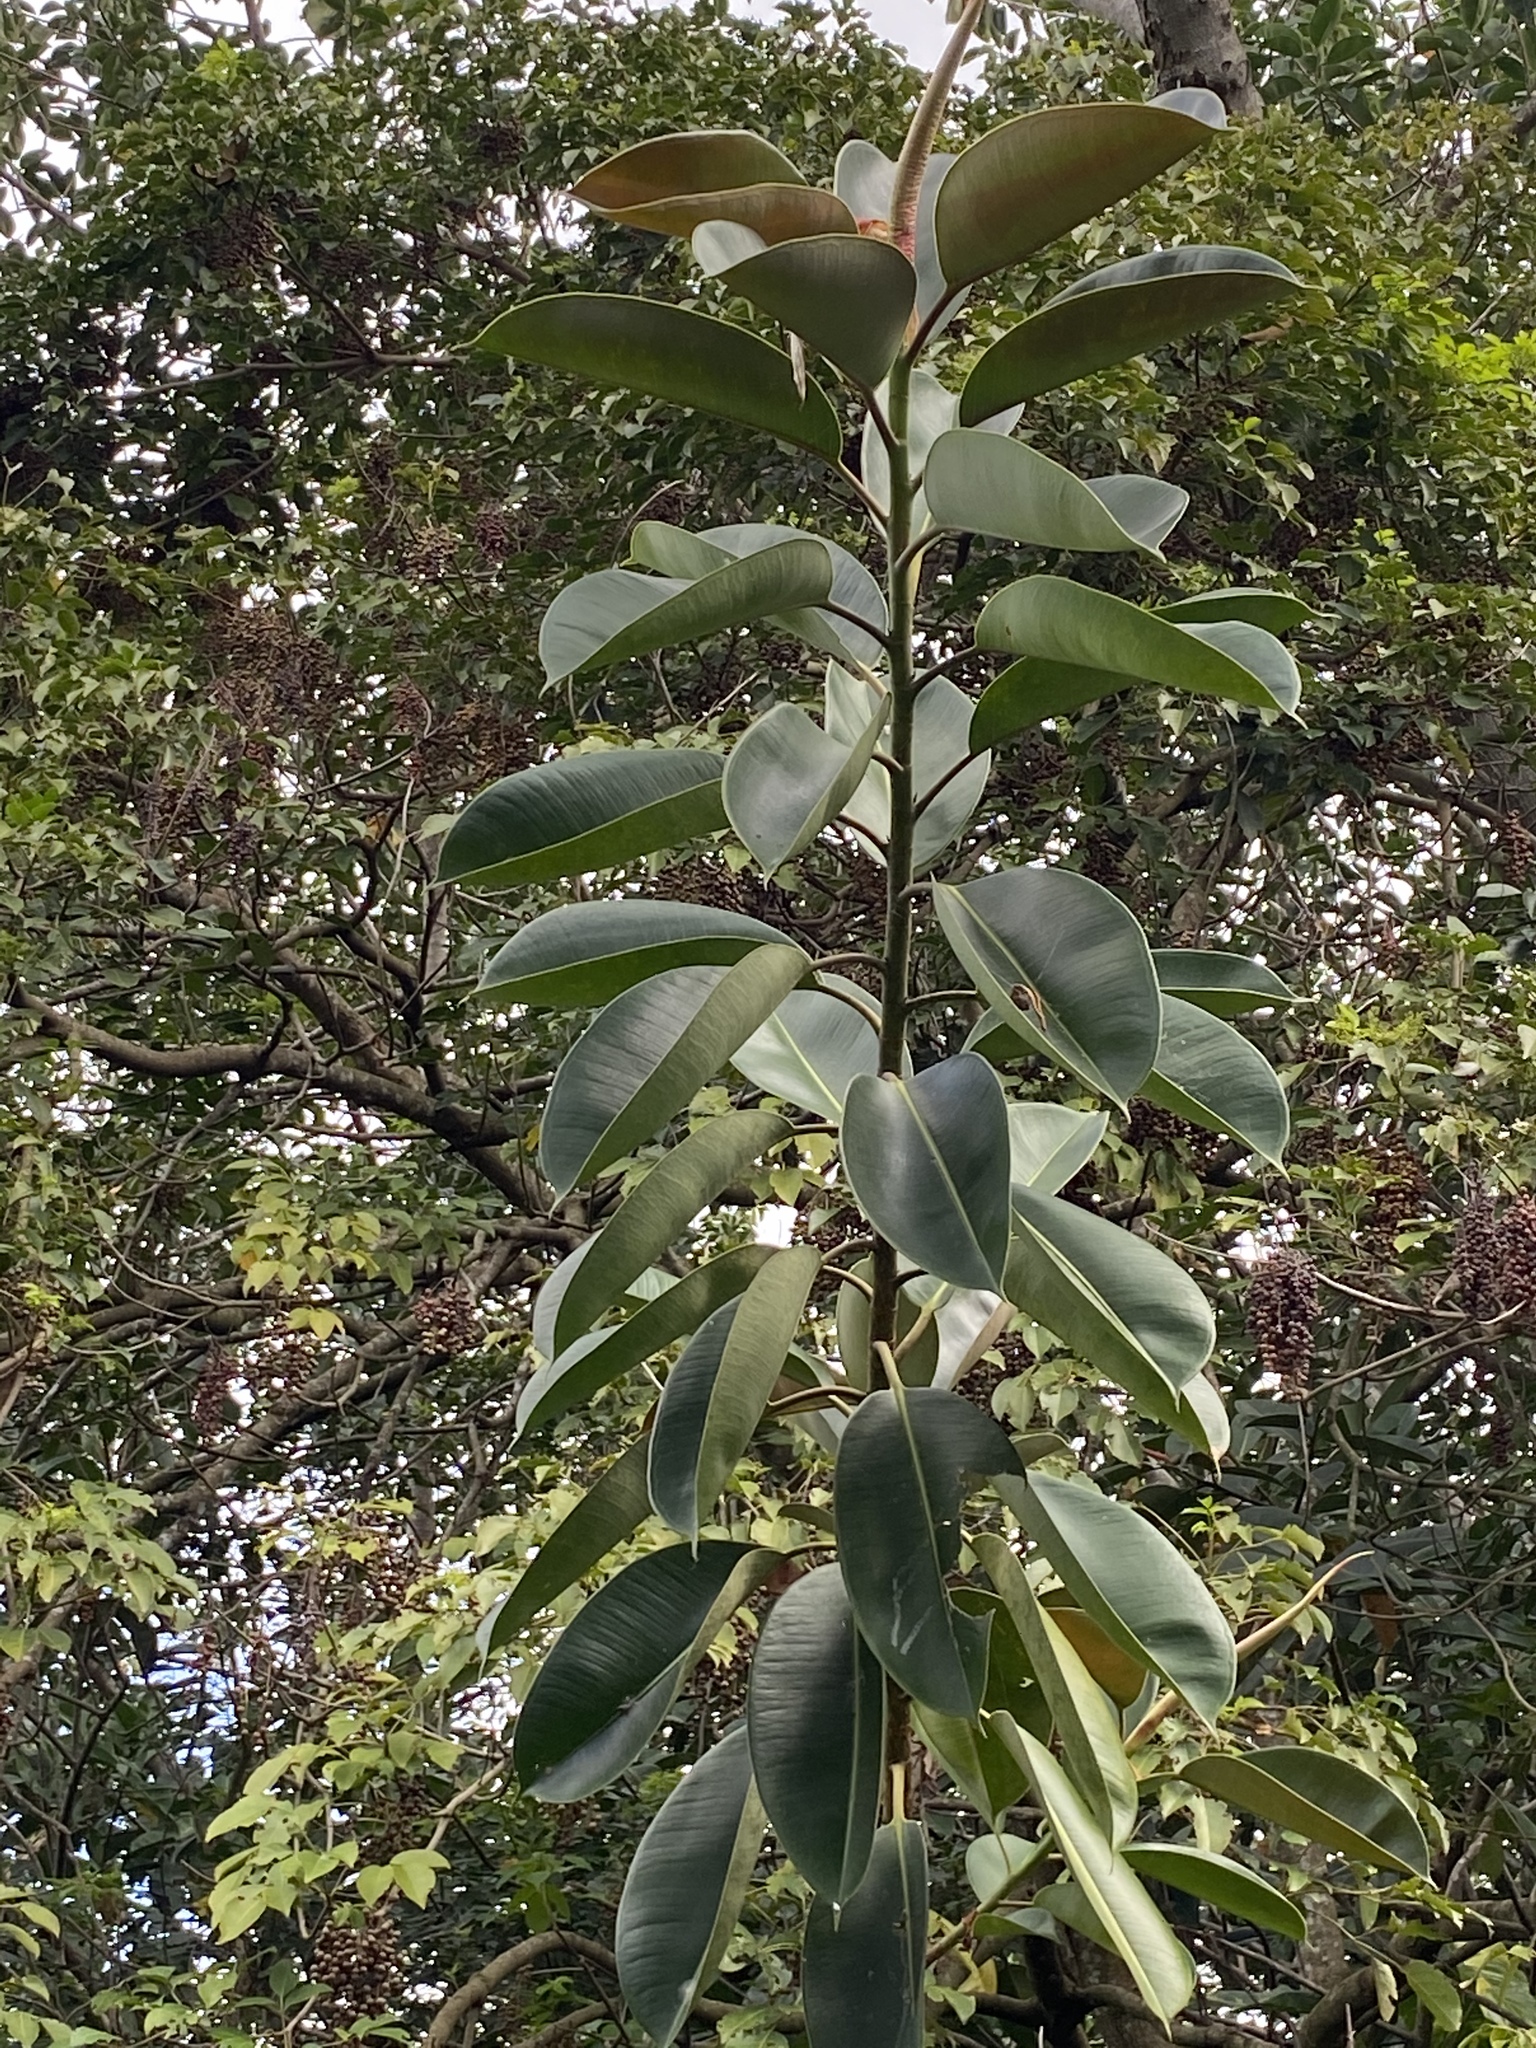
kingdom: Plantae
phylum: Tracheophyta
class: Magnoliopsida
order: Rosales
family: Moraceae
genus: Ficus
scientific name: Ficus elastica
